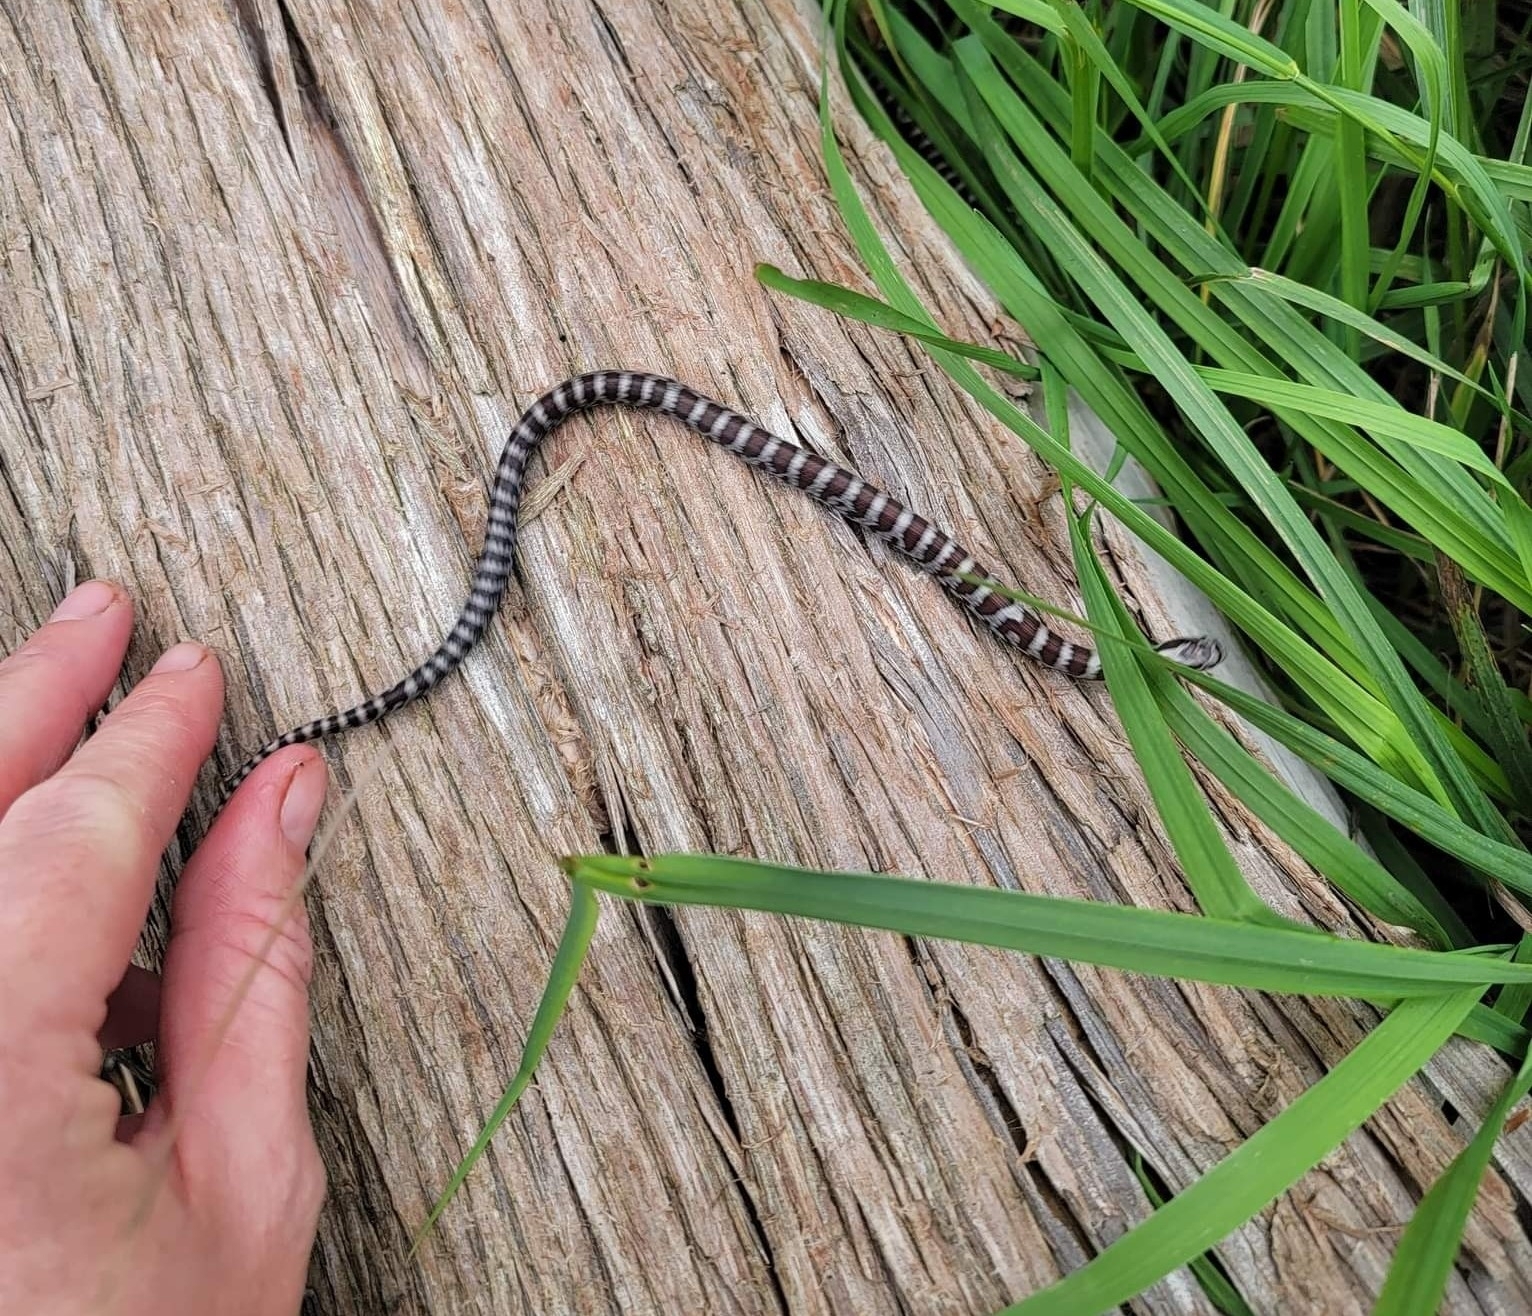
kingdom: Animalia
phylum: Chordata
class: Squamata
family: Colubridae
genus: Lampropeltis
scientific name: Lampropeltis triangulum
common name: Eastern milksnake
